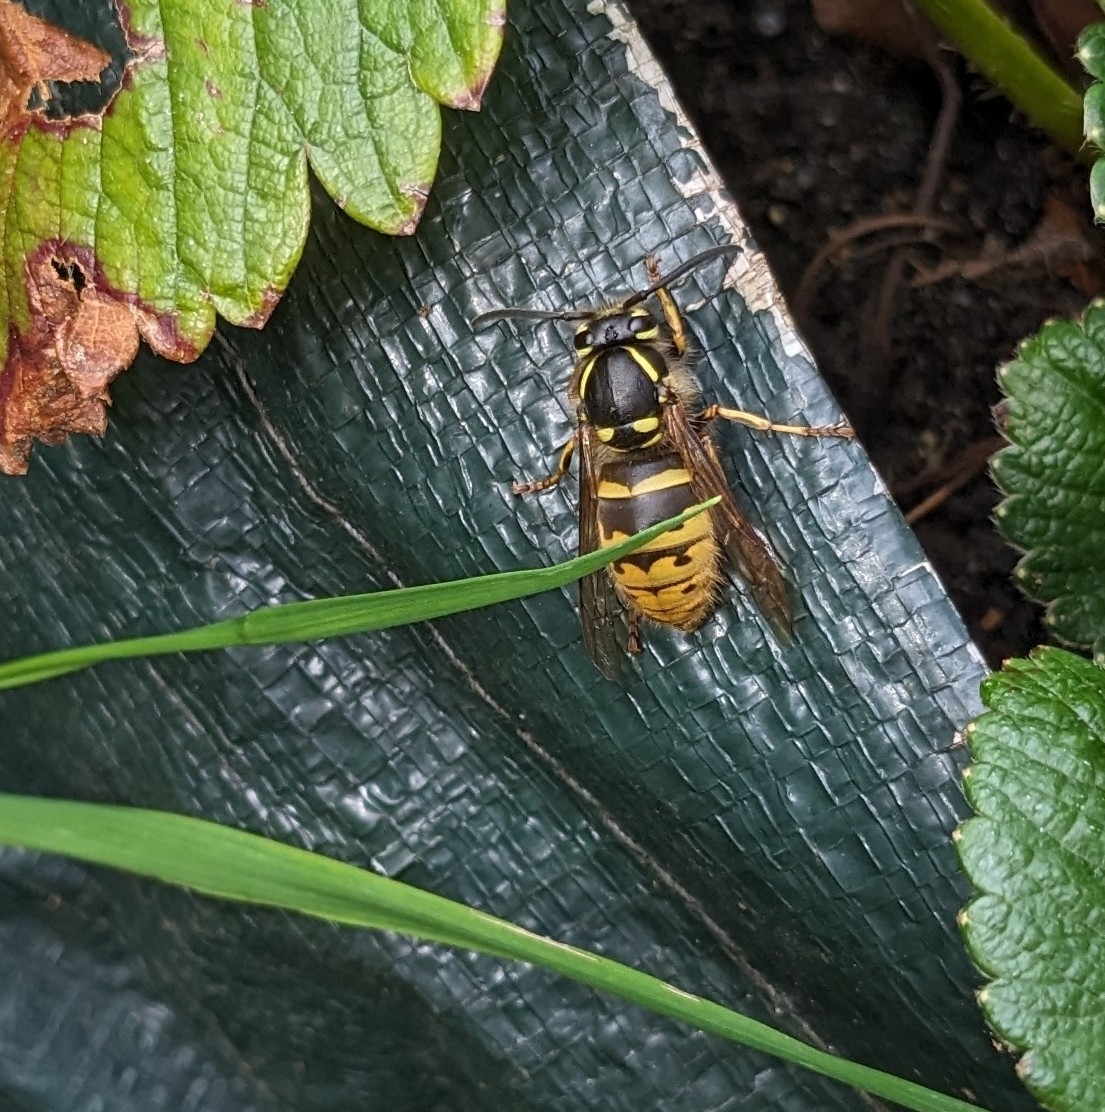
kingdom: Animalia
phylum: Arthropoda
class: Insecta
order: Hymenoptera
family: Vespidae
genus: Vespula
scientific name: Vespula vulgaris
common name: Common wasp
